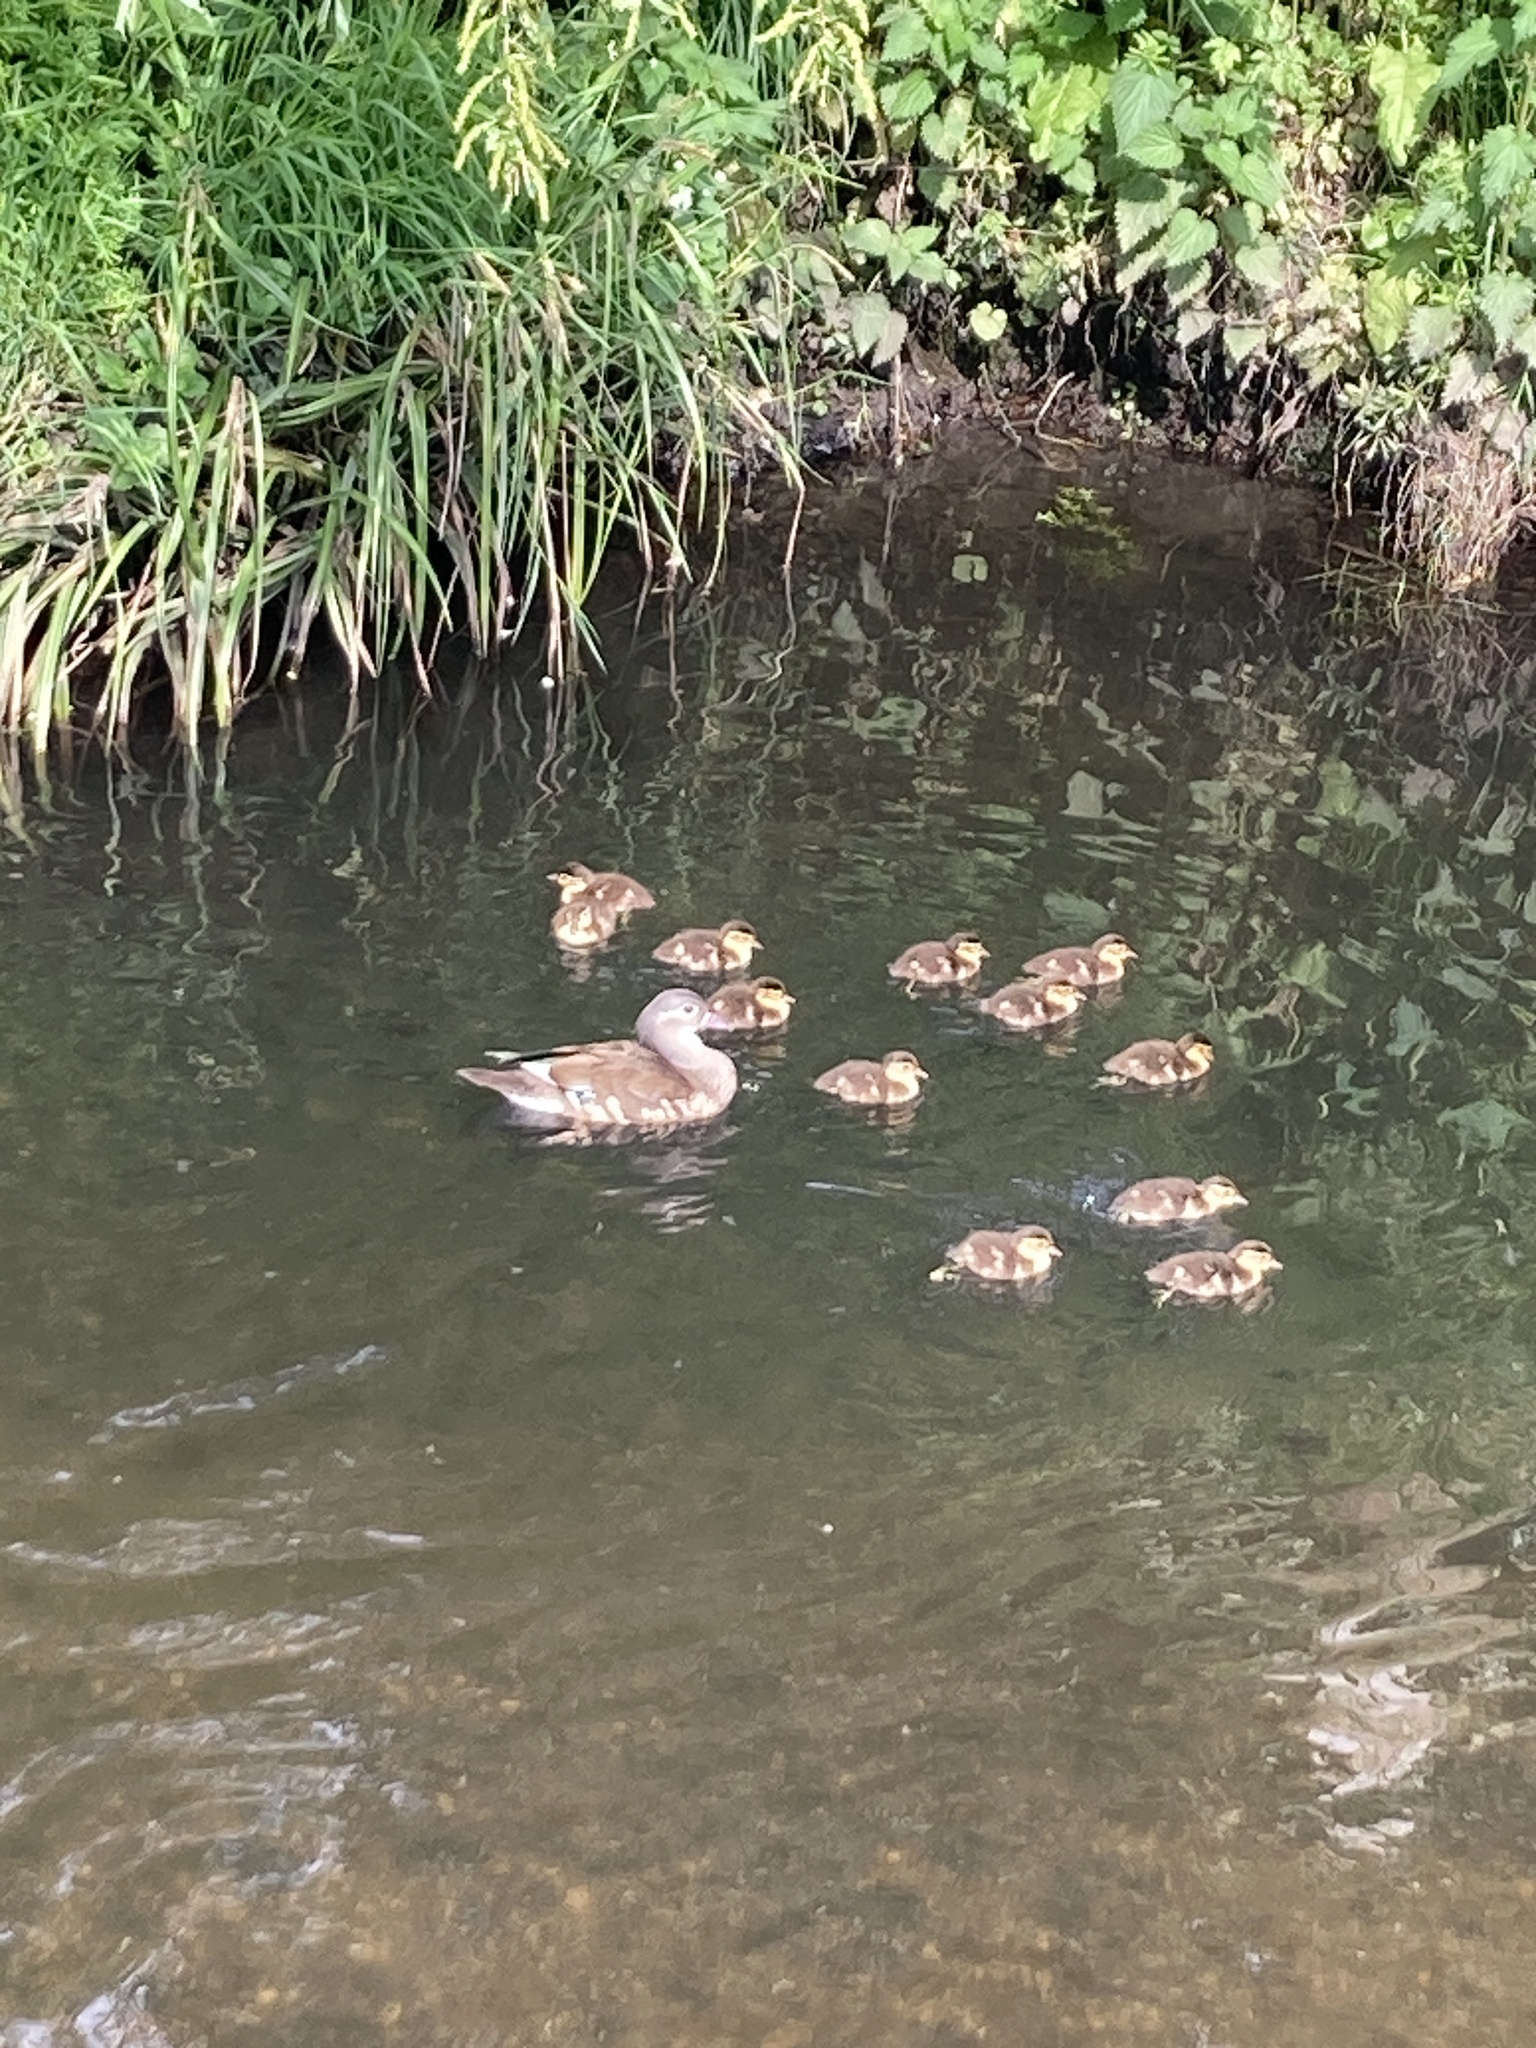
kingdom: Animalia
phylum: Chordata
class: Aves
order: Anseriformes
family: Anatidae
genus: Aix
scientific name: Aix galericulata
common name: Mandarin duck
